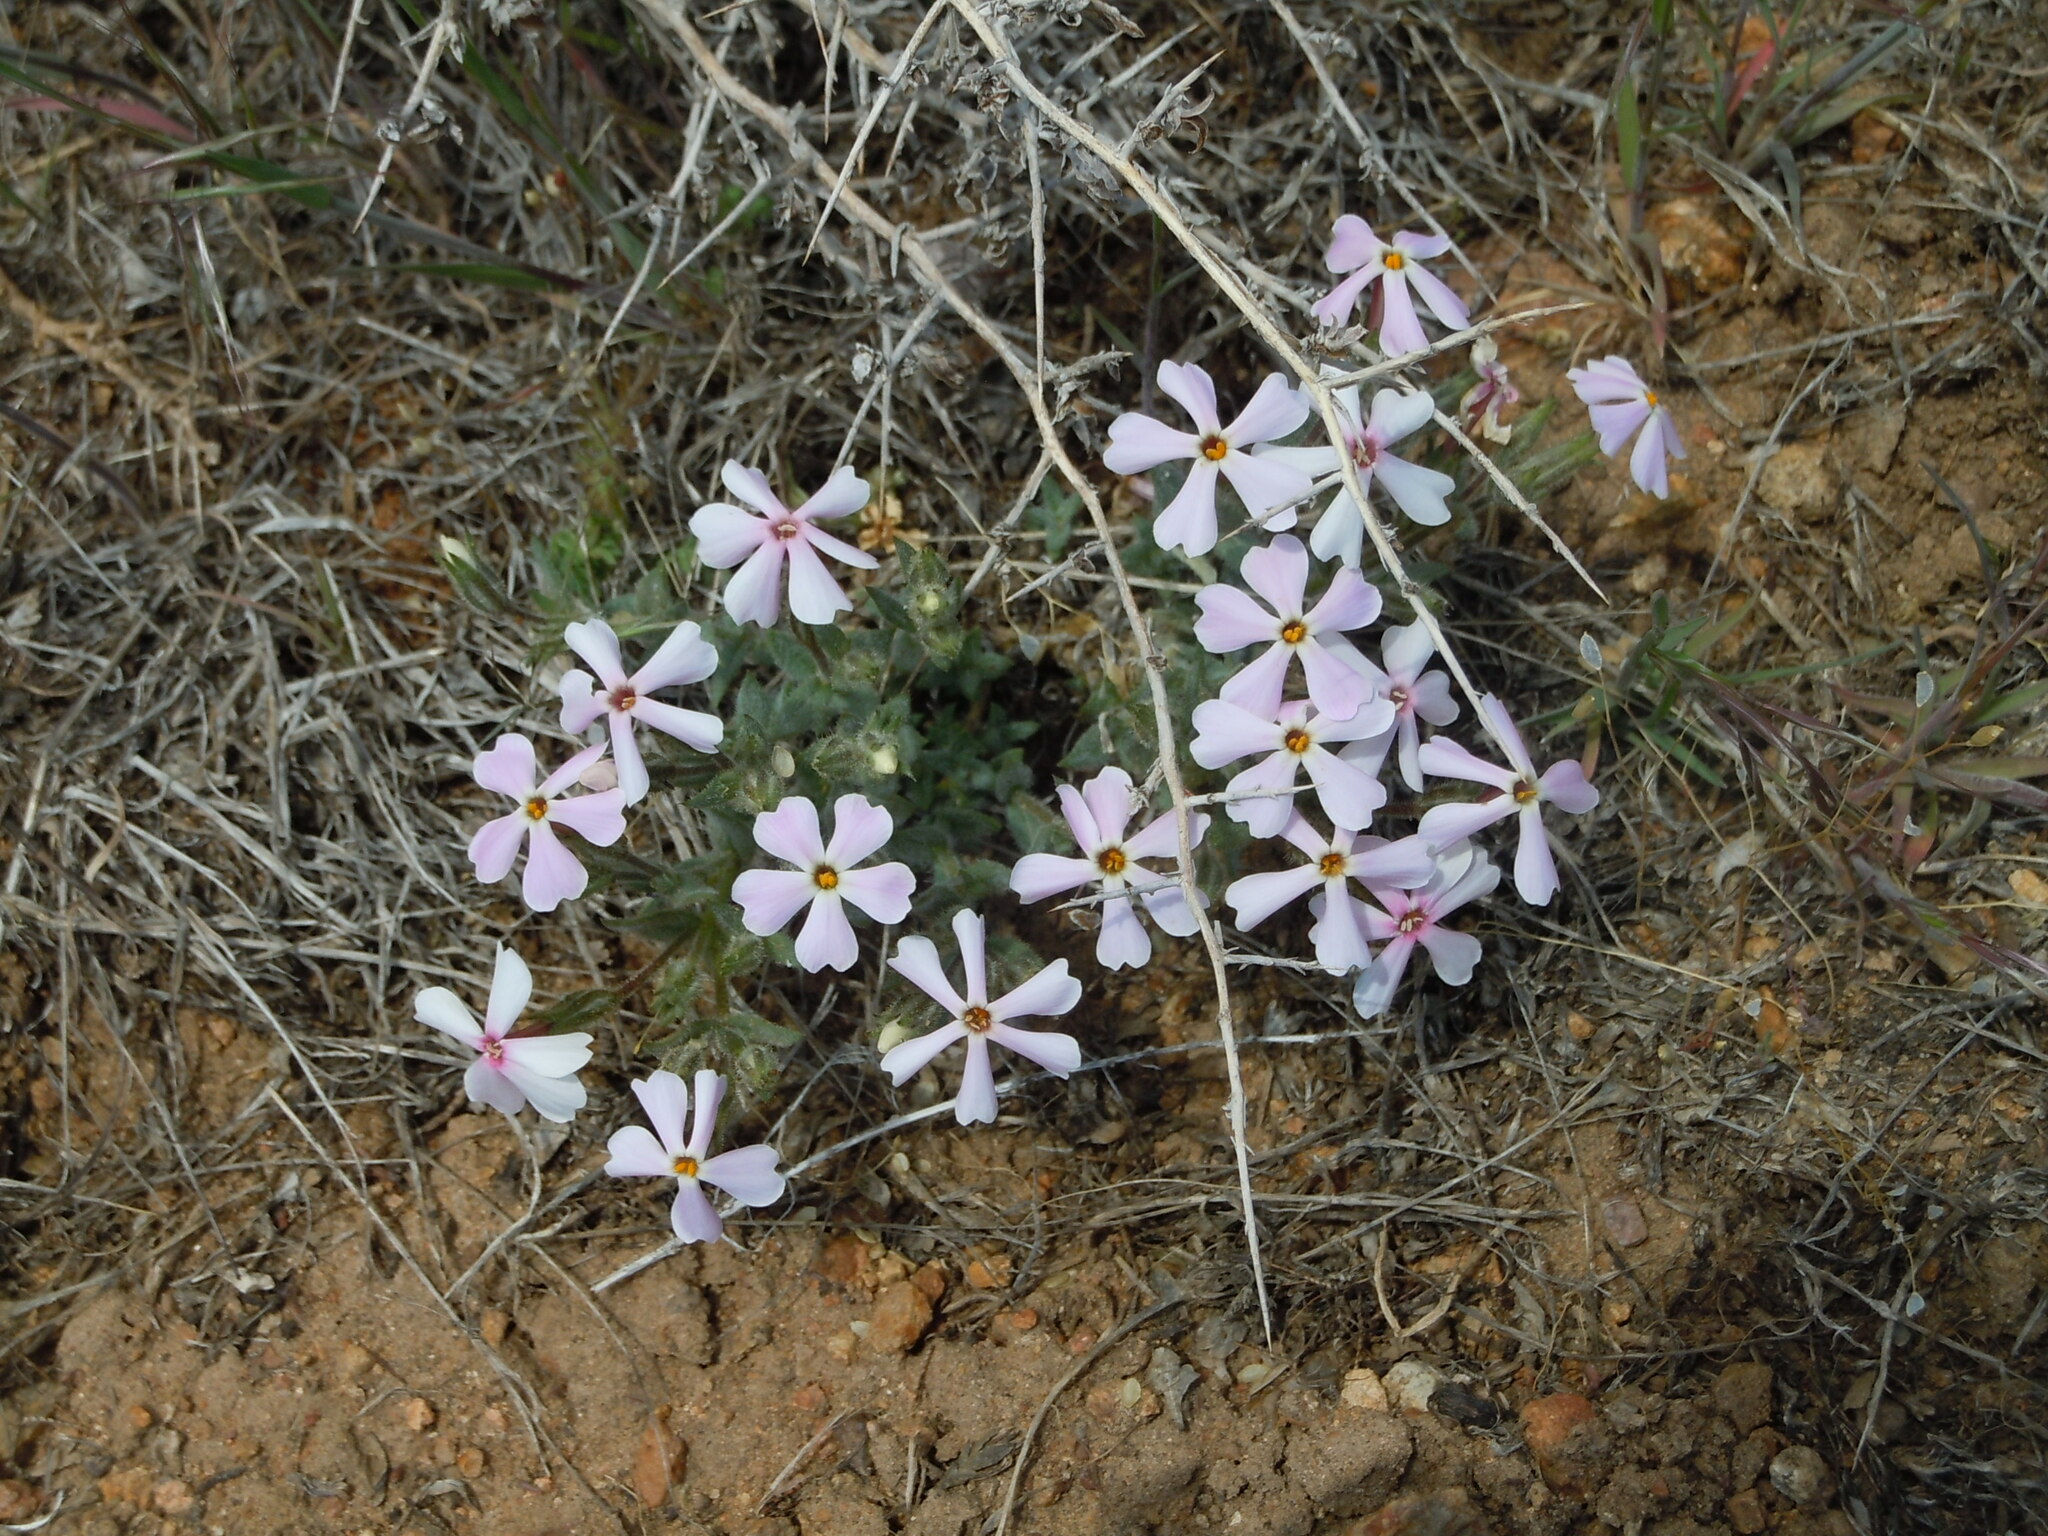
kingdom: Plantae
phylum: Tracheophyta
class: Magnoliopsida
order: Ericales
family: Polemoniaceae
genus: Phlox
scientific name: Phlox longifolia
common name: Longleaf phlox
